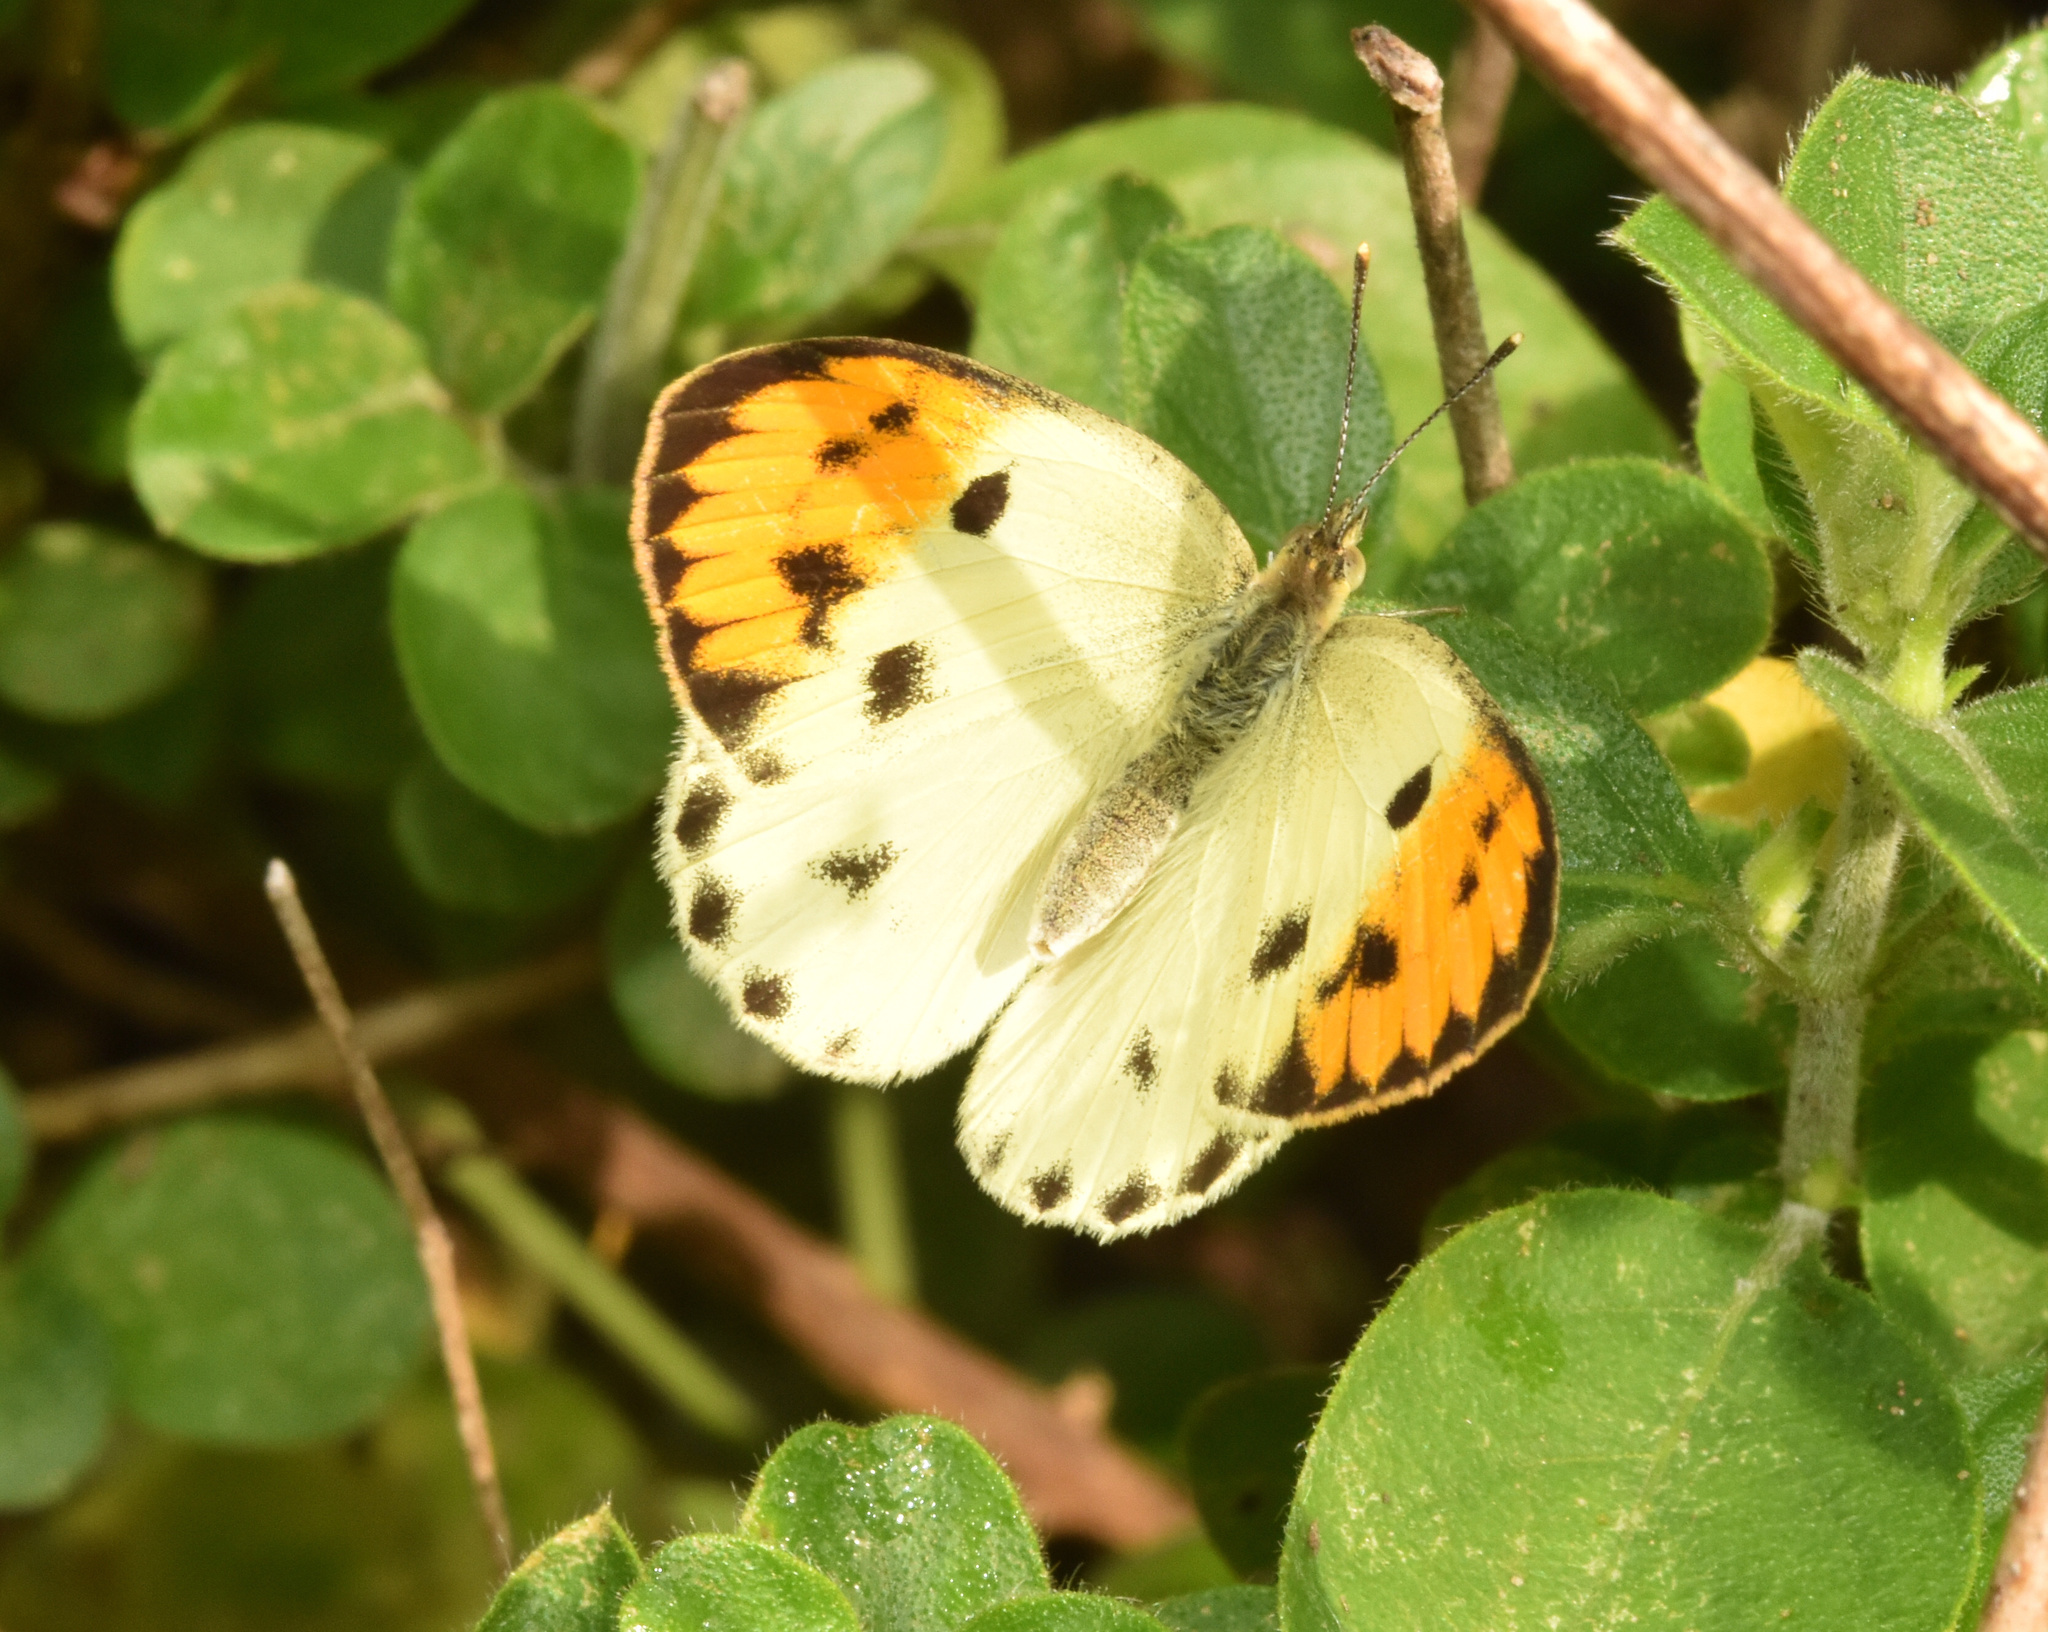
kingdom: Animalia
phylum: Arthropoda
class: Insecta
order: Lepidoptera
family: Pieridae
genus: Colotis
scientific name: Colotis auxo
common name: Sulphur orange tip
